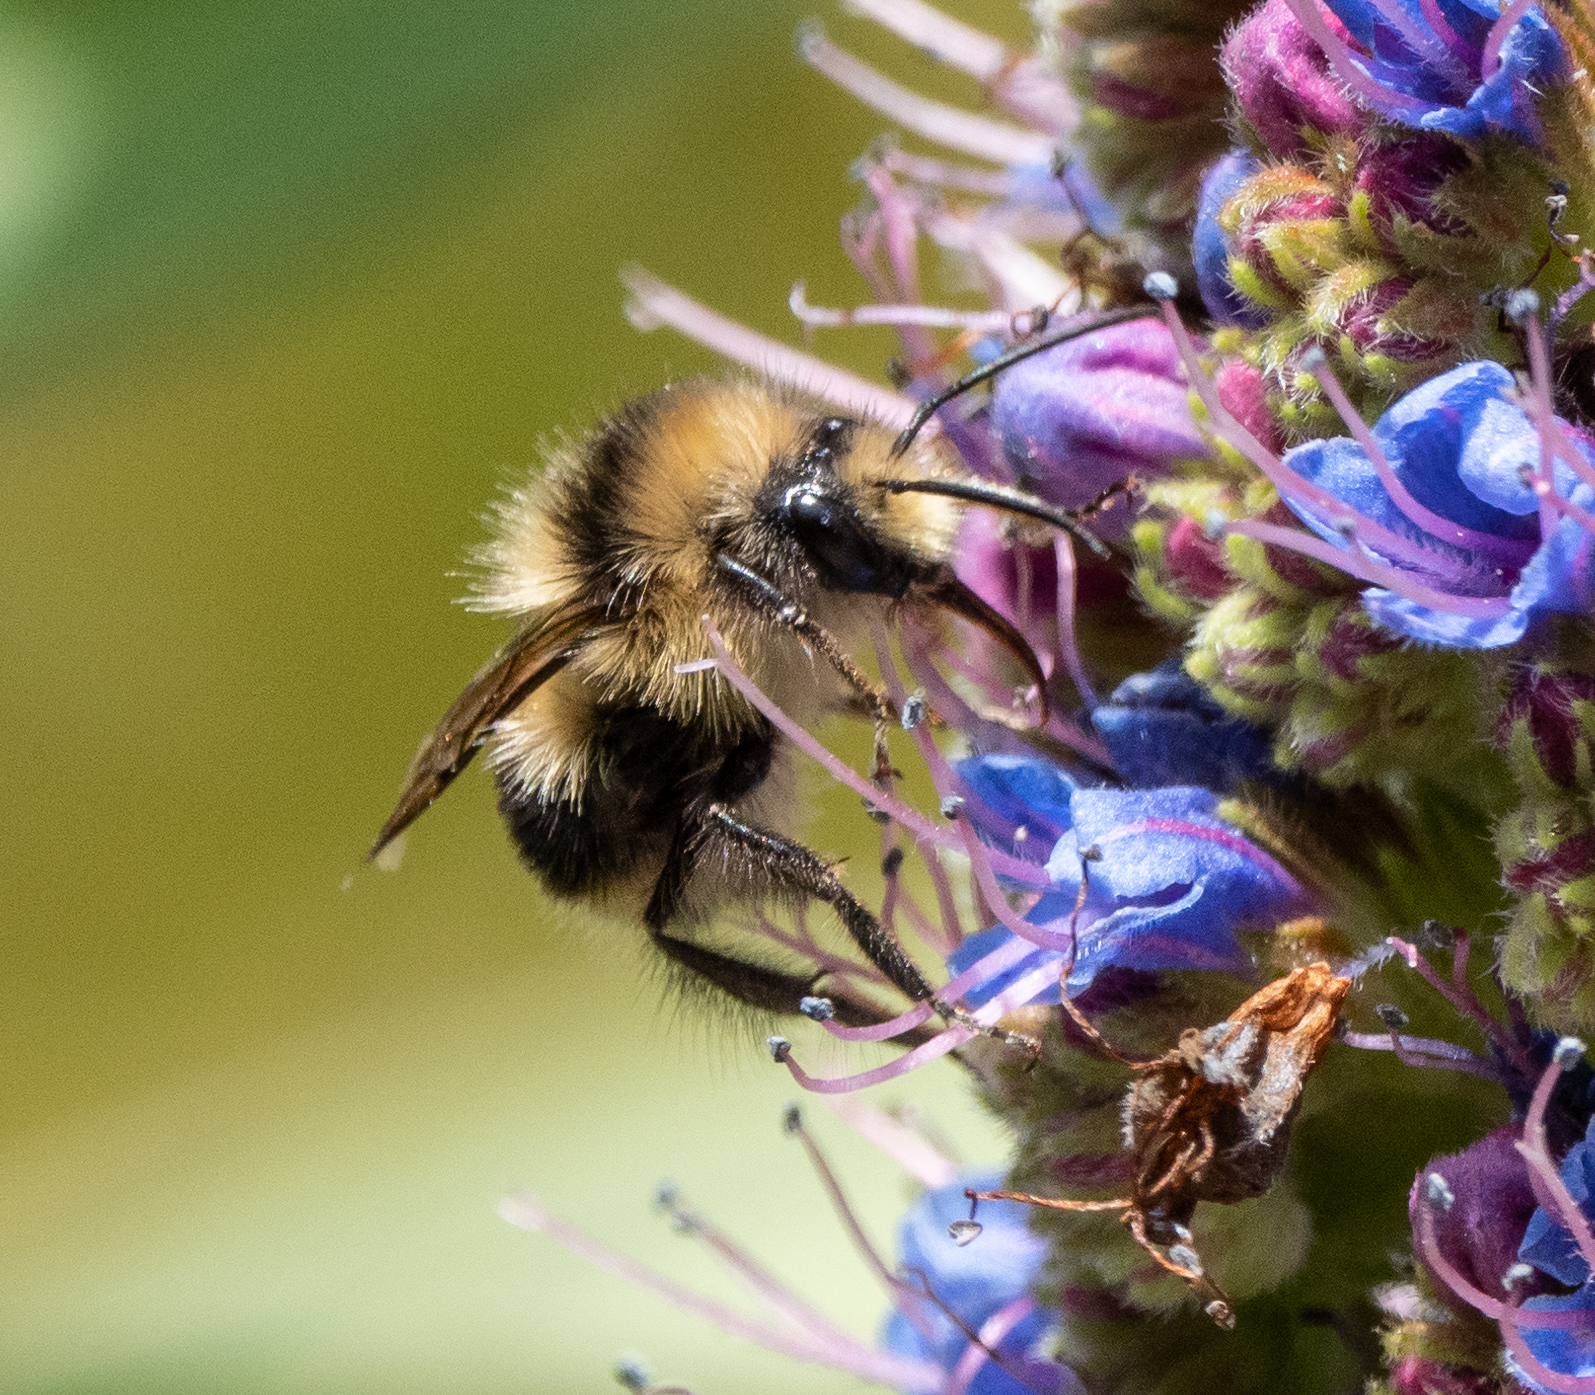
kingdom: Animalia
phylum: Arthropoda
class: Insecta
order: Hymenoptera
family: Apidae
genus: Bombus
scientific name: Bombus melanopygus
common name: Black tail bumble bee
